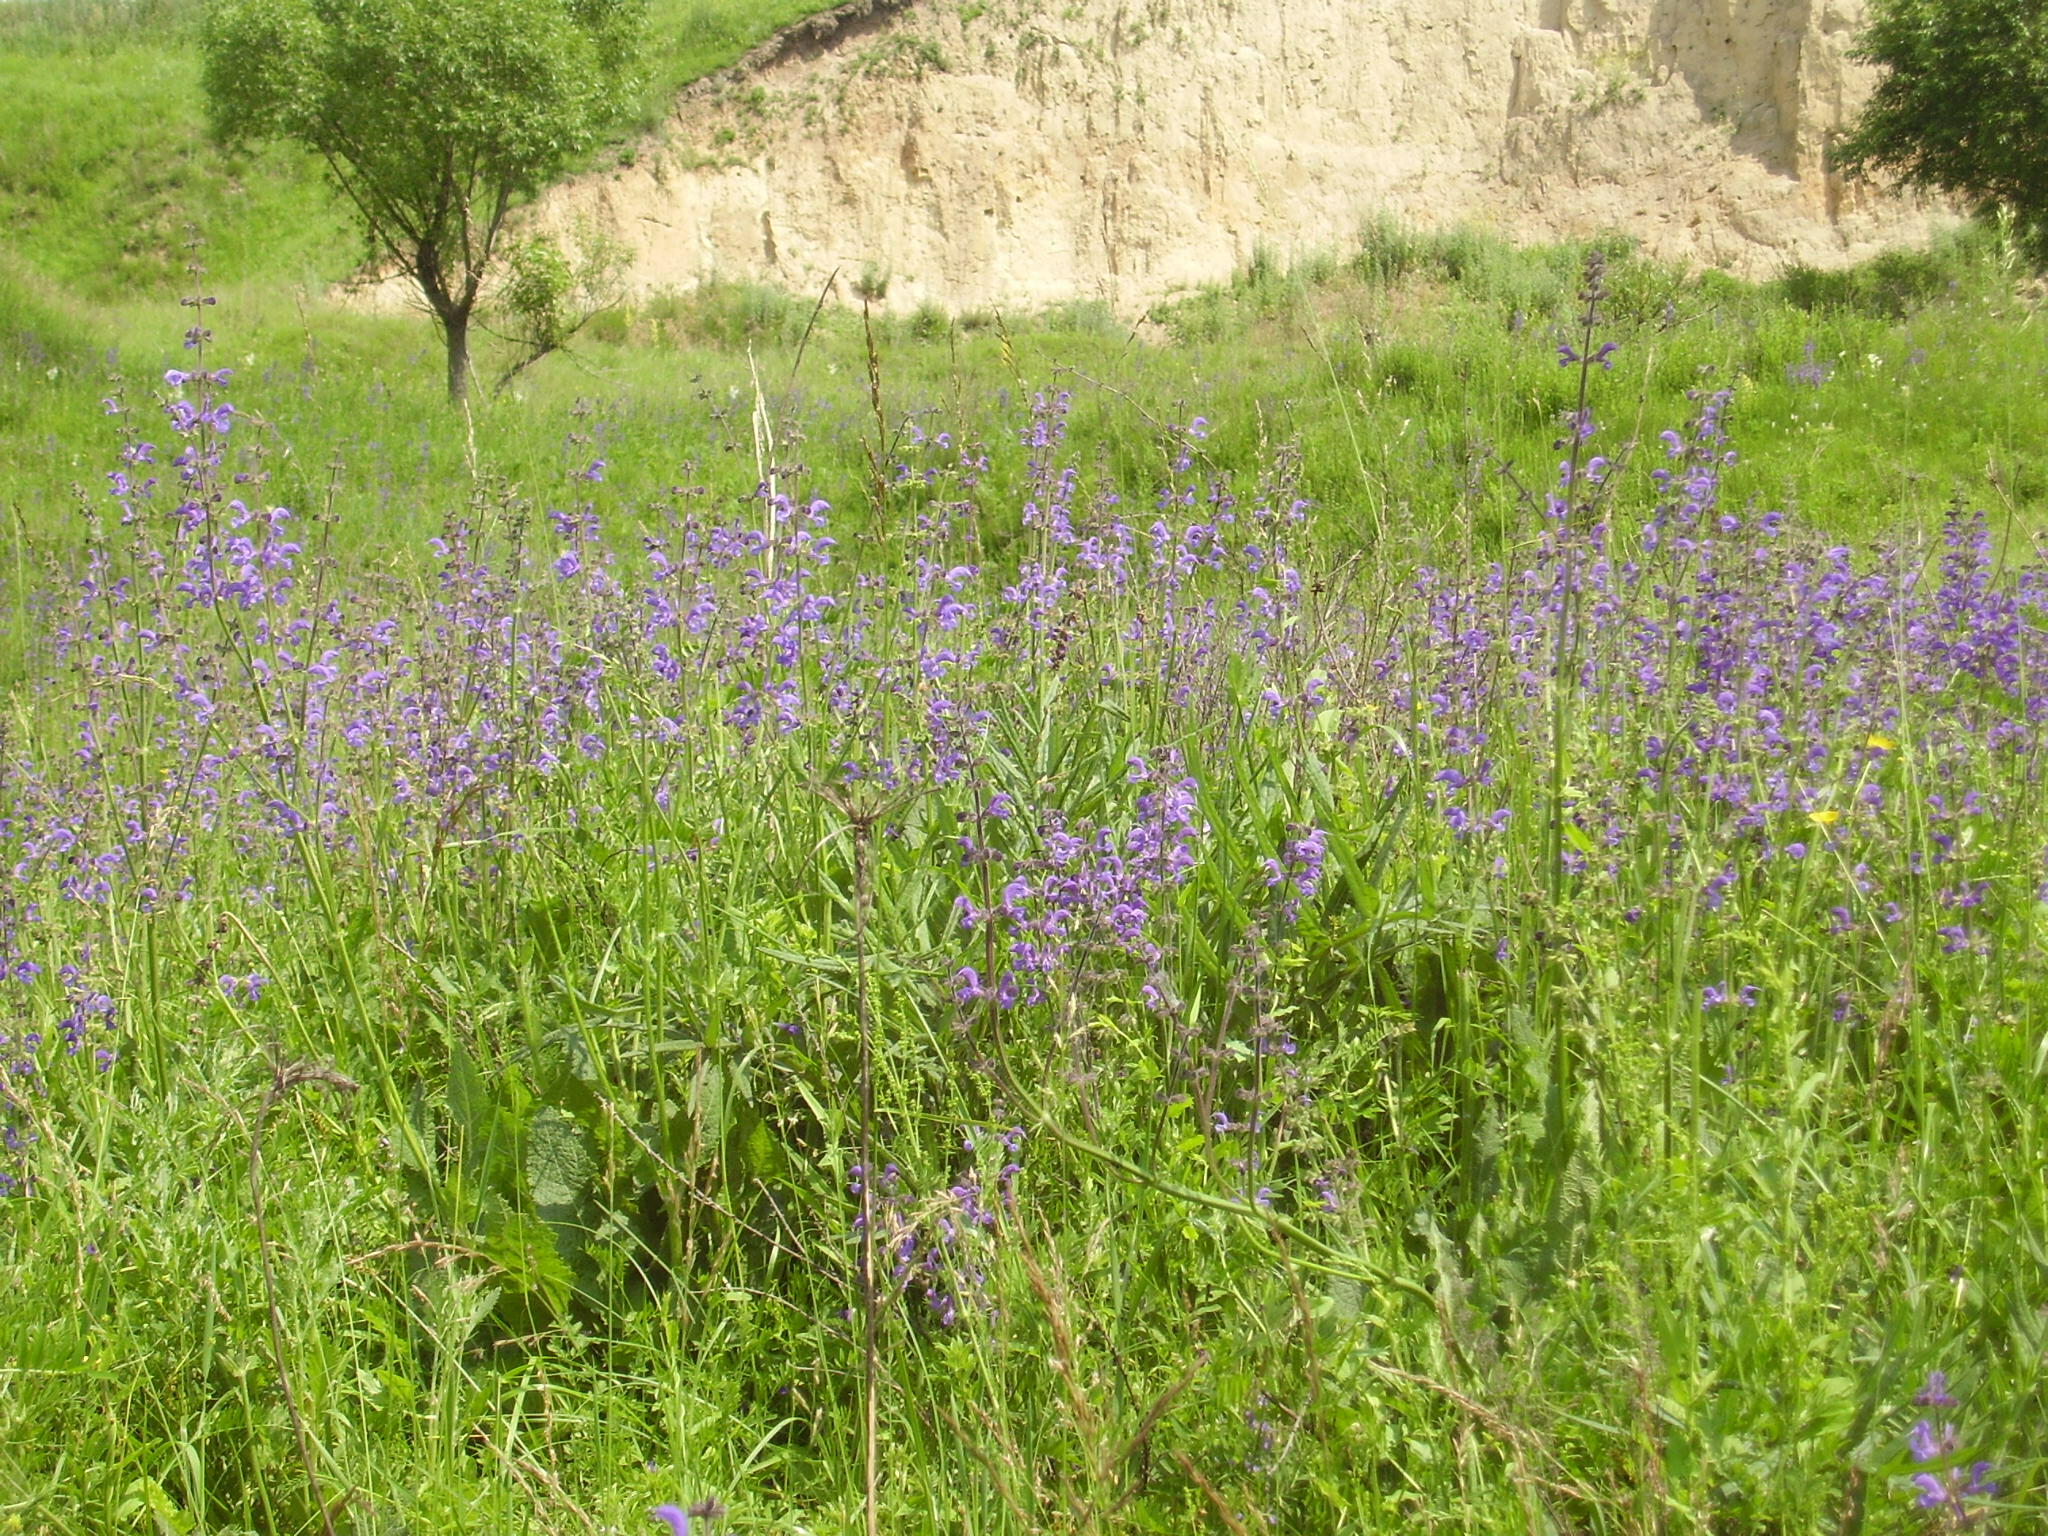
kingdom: Plantae
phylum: Tracheophyta
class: Magnoliopsida
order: Lamiales
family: Lamiaceae
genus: Salvia
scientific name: Salvia pratensis
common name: Meadow sage
